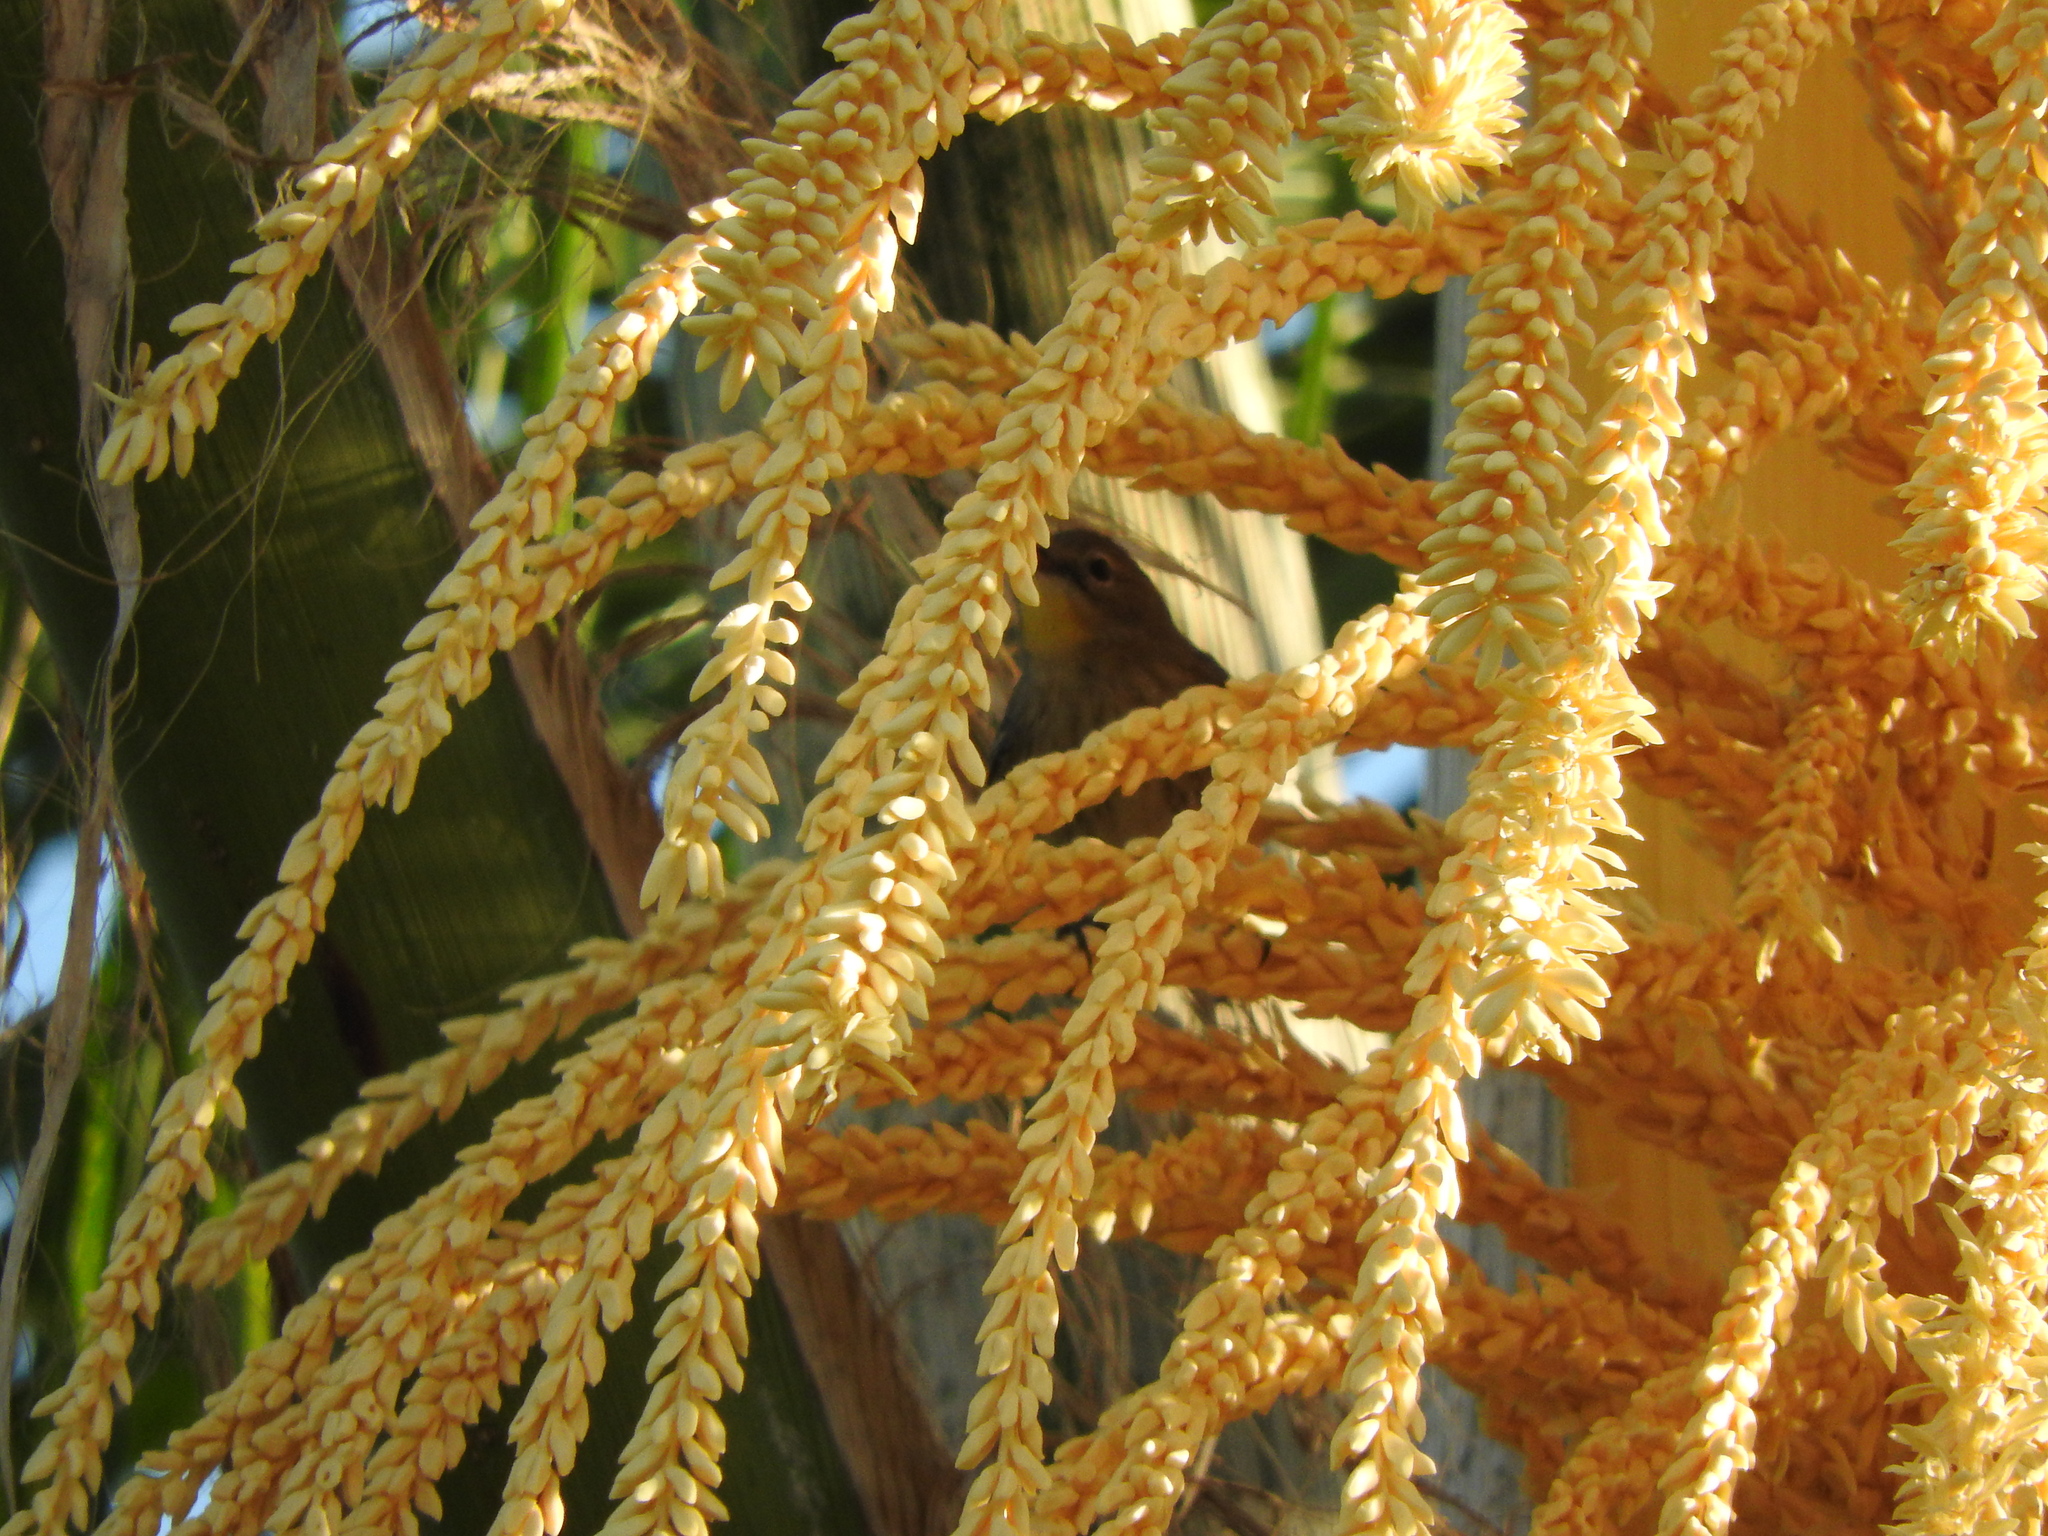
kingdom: Animalia
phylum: Chordata
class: Aves
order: Passeriformes
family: Parulidae
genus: Setophaga
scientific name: Setophaga coronata
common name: Myrtle warbler
